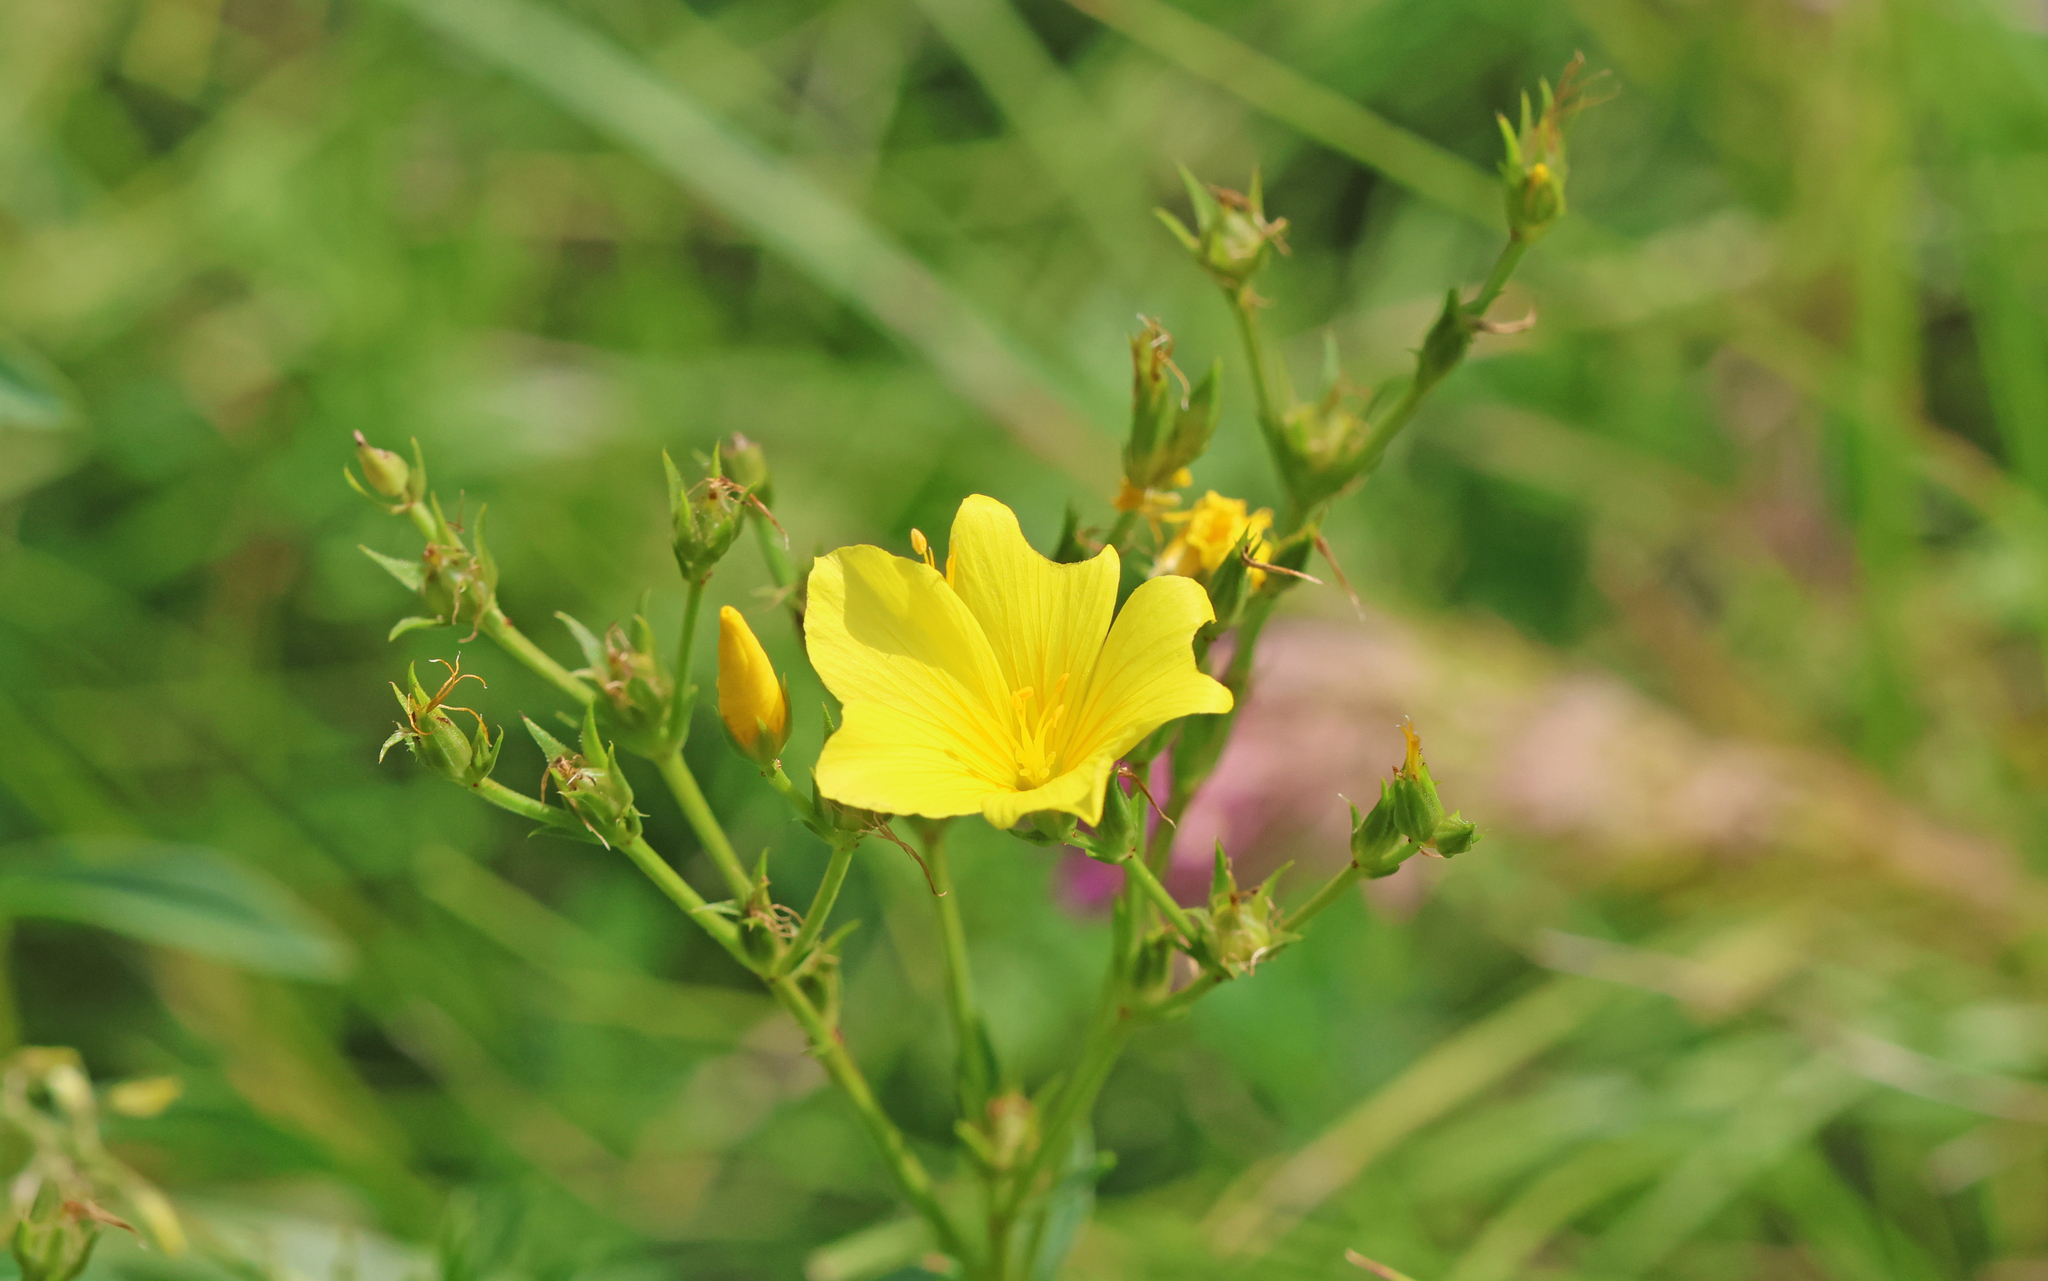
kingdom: Plantae
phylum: Tracheophyta
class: Magnoliopsida
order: Malpighiales
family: Linaceae
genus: Linum
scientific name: Linum flavum
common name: Yellow flax
